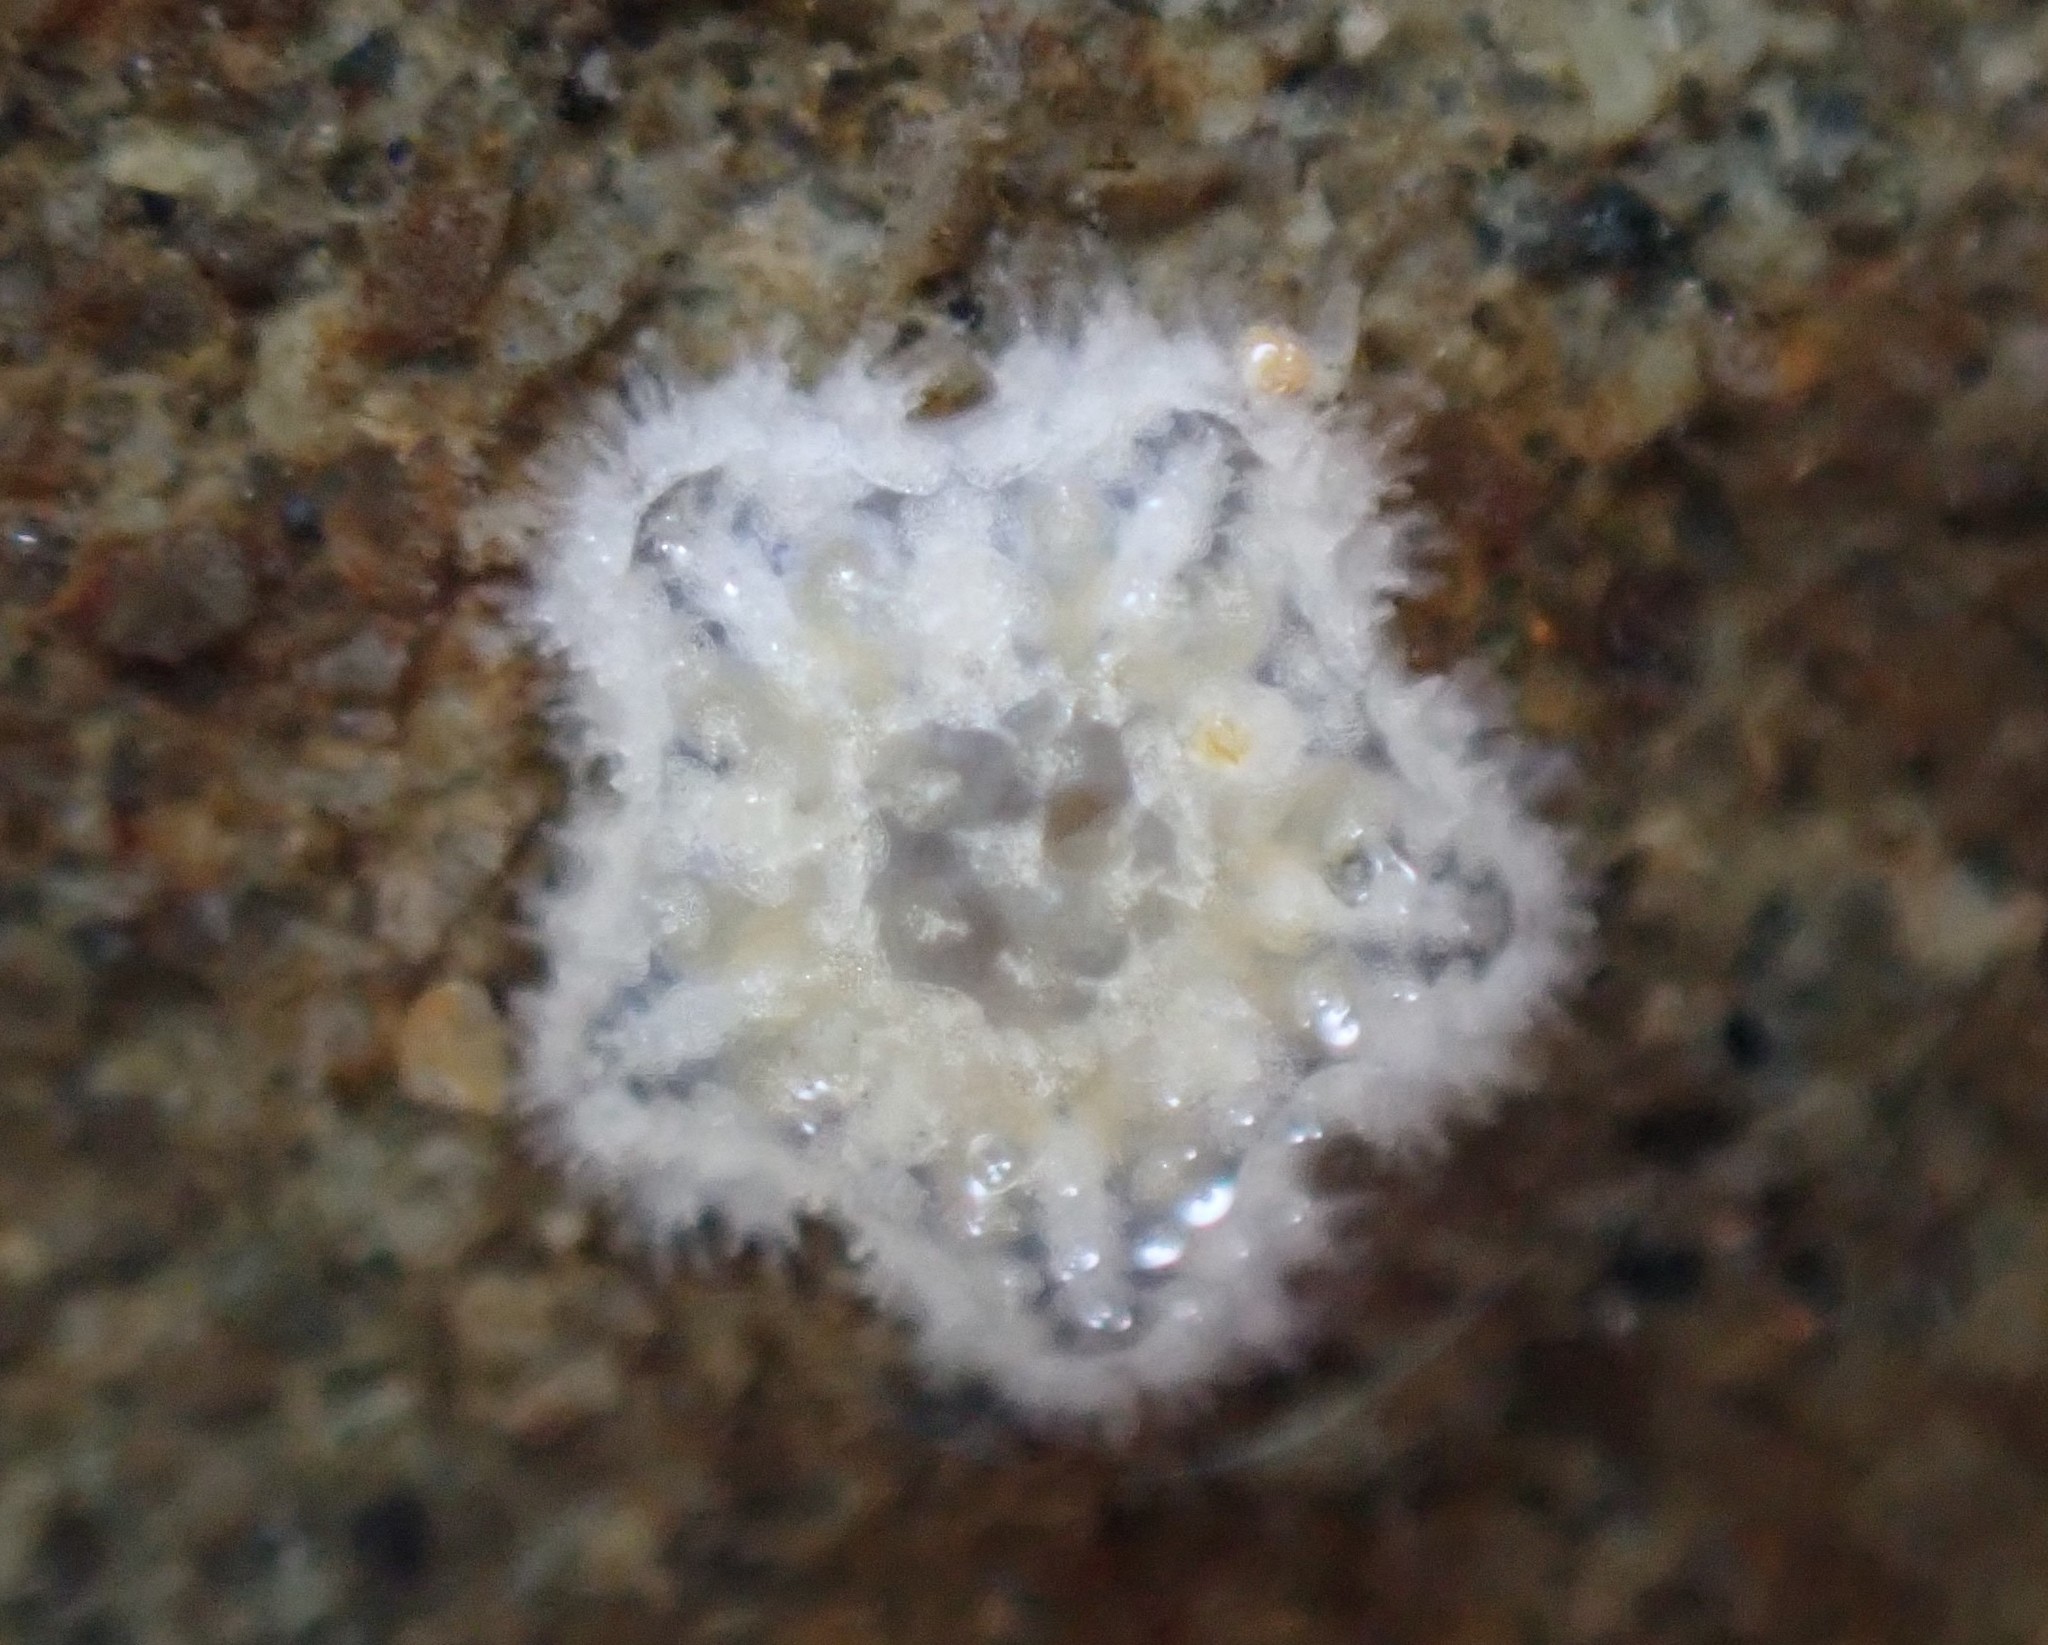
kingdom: Animalia
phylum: Echinodermata
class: Asteroidea
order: Valvatida
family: Asterinidae
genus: Patiriella
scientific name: Patiriella regularis
